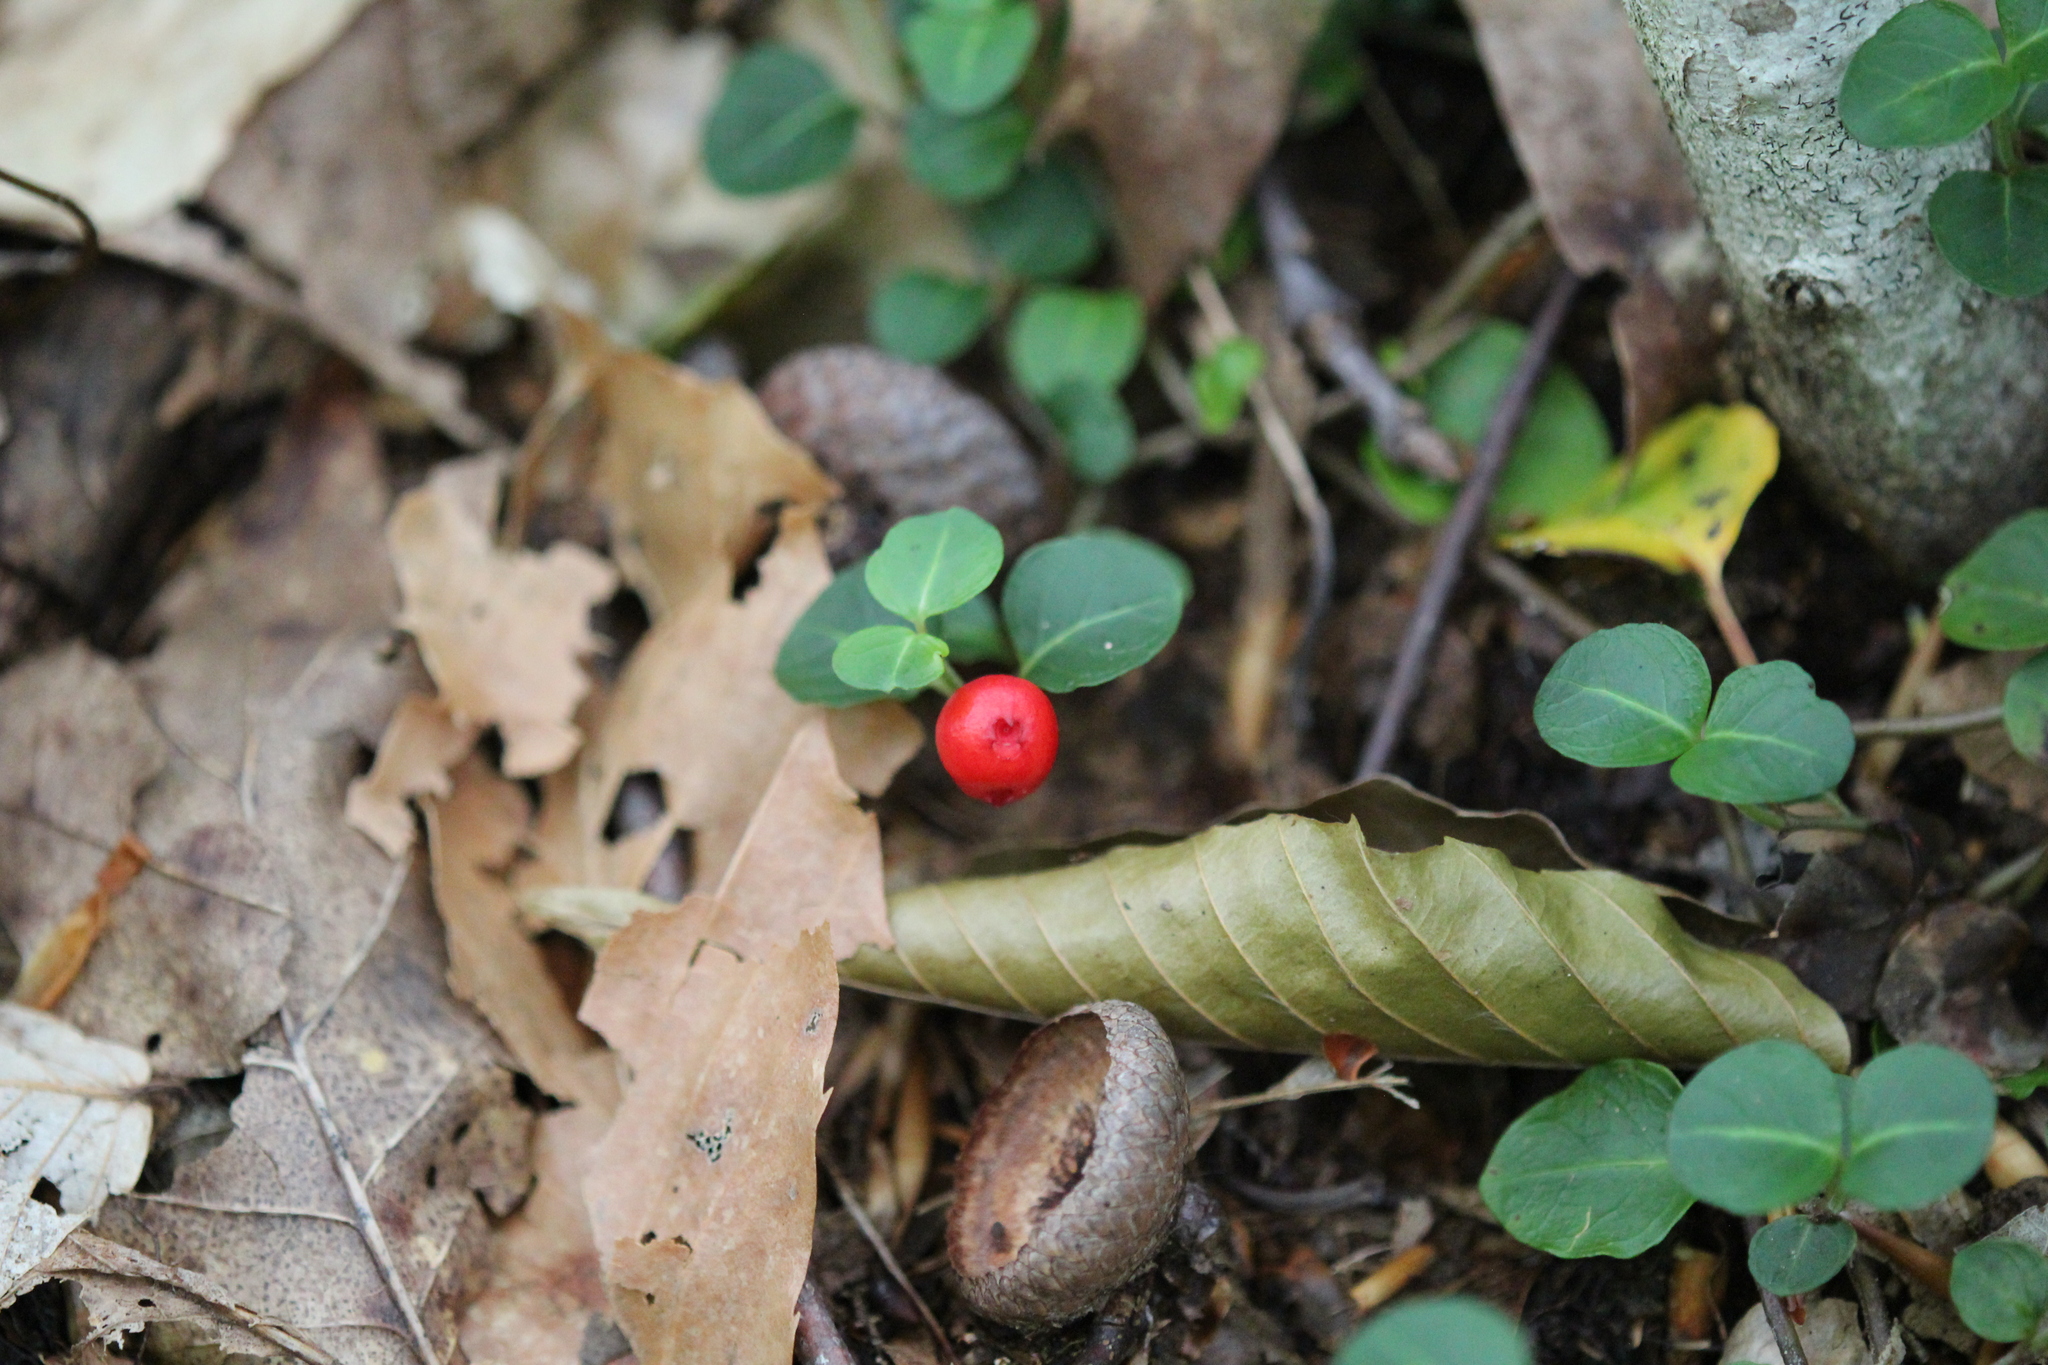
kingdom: Plantae
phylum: Tracheophyta
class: Magnoliopsida
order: Gentianales
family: Rubiaceae
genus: Mitchella
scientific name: Mitchella repens
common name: Partridge-berry
